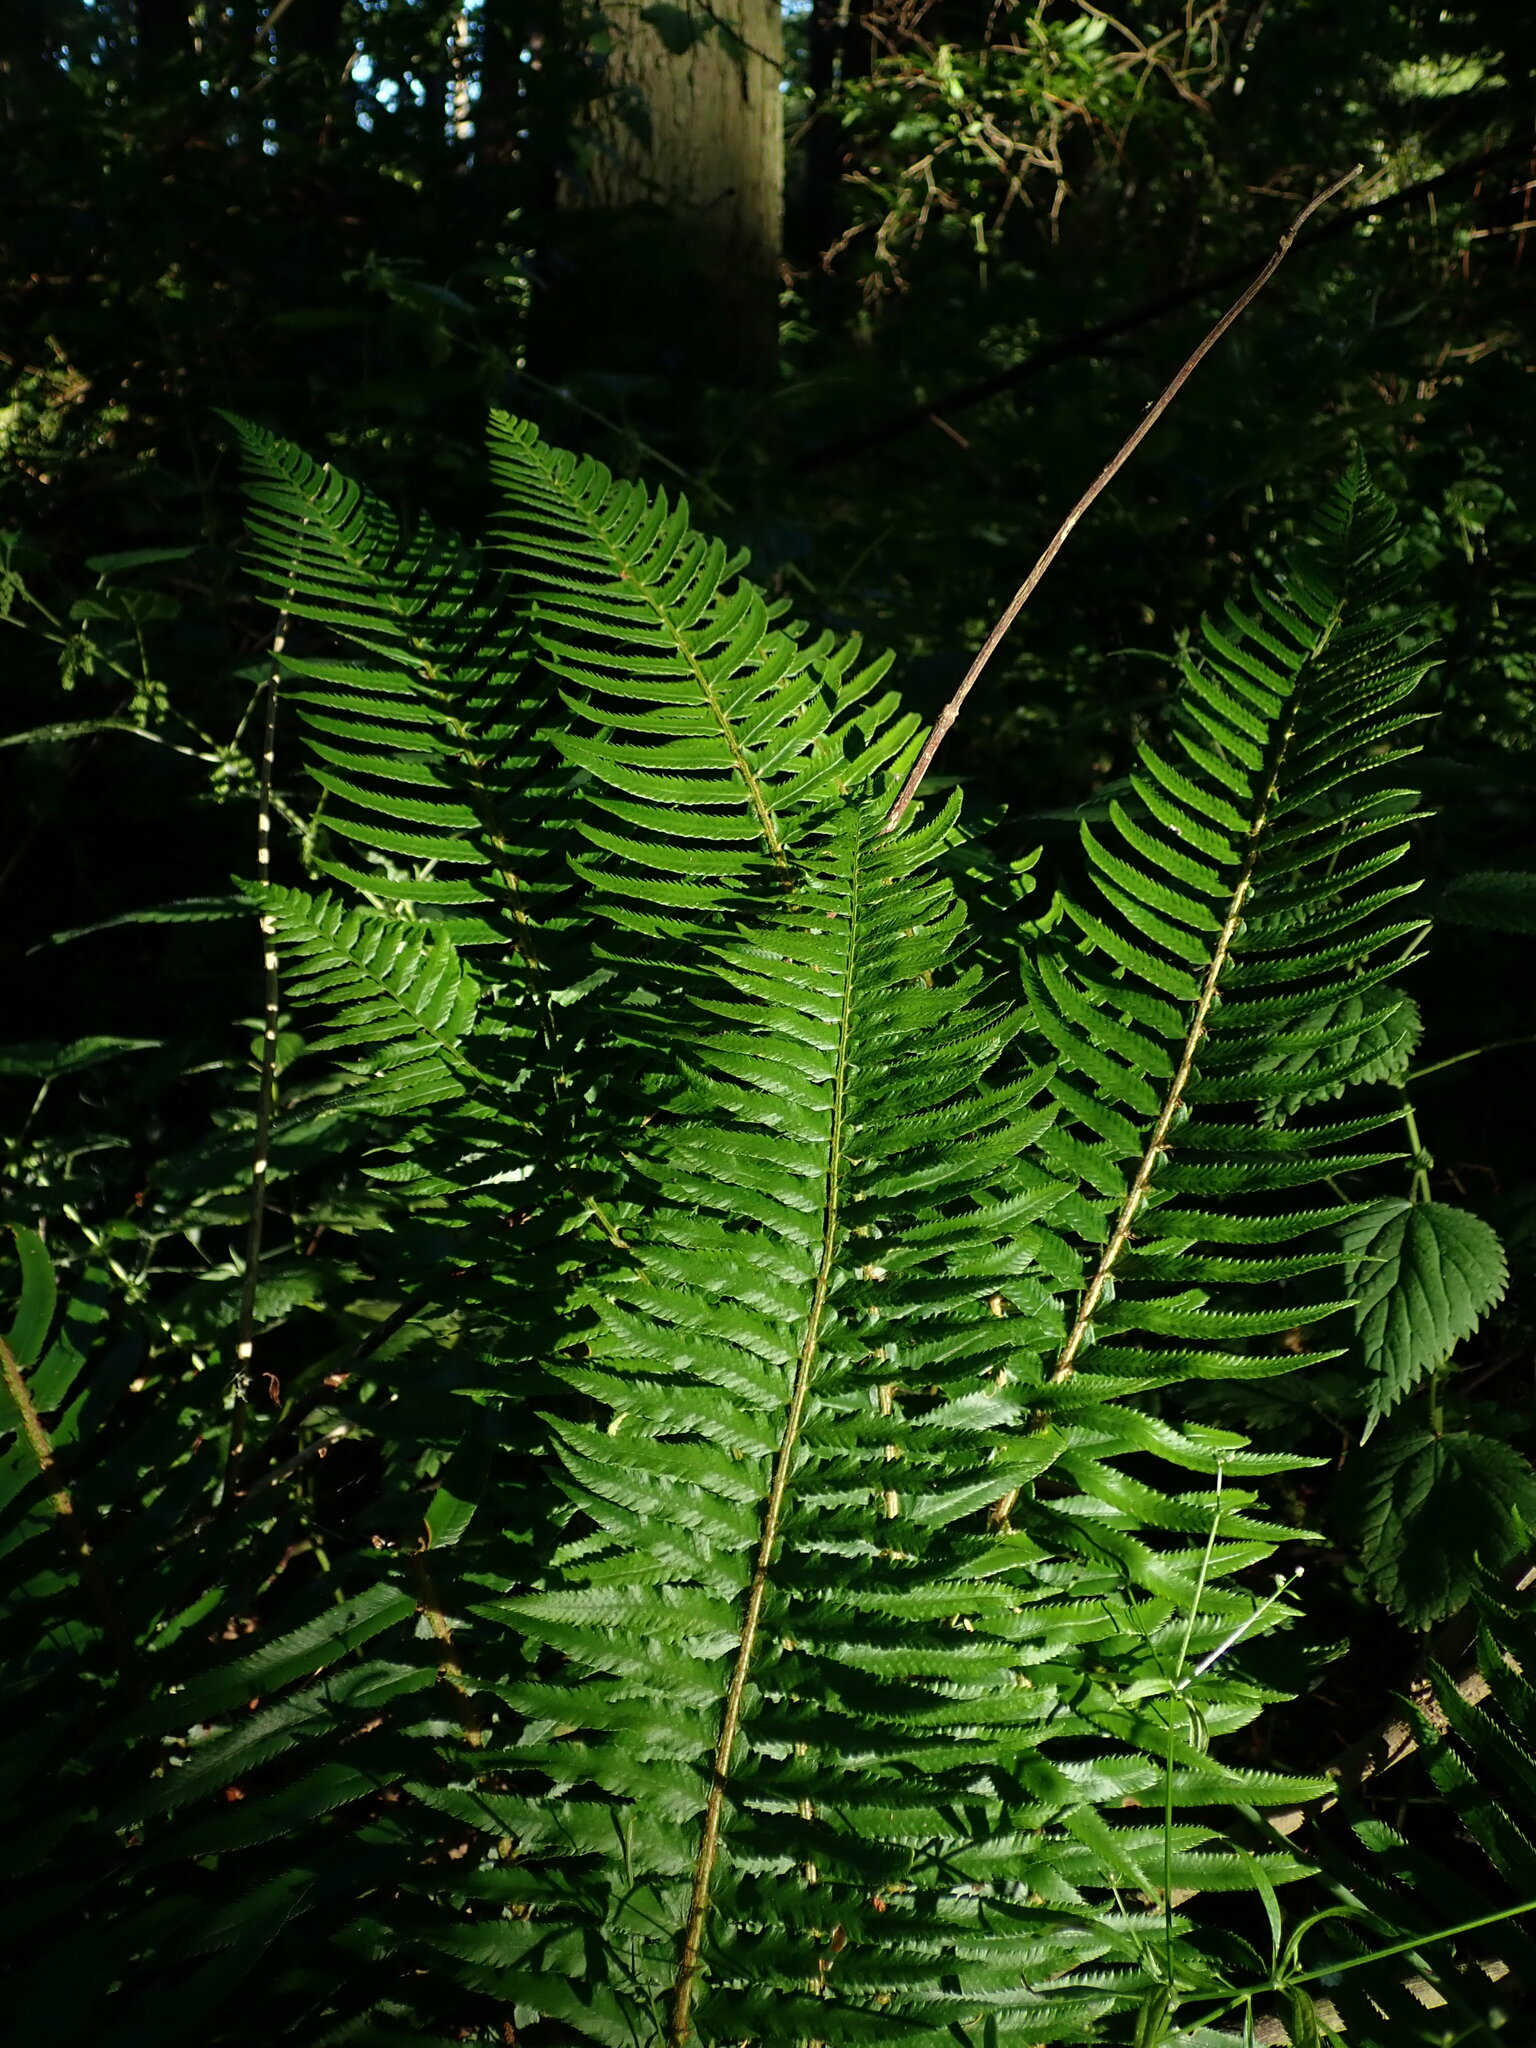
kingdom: Plantae
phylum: Tracheophyta
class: Polypodiopsida
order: Polypodiales
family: Dryopteridaceae
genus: Polystichum
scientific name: Polystichum munitum
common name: Western sword-fern
